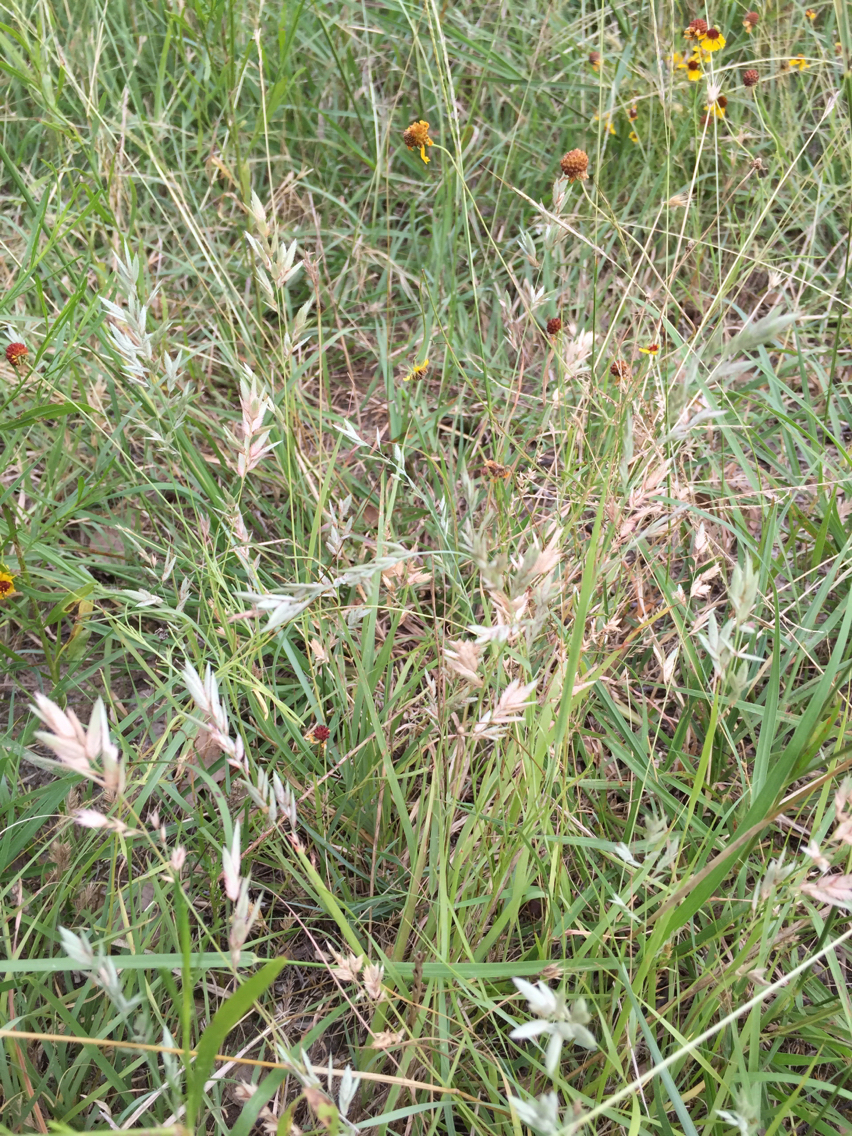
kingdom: Plantae
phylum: Tracheophyta
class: Liliopsida
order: Poales
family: Poaceae
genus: Eragrostis
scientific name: Eragrostis secundiflora
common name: Red love grass
